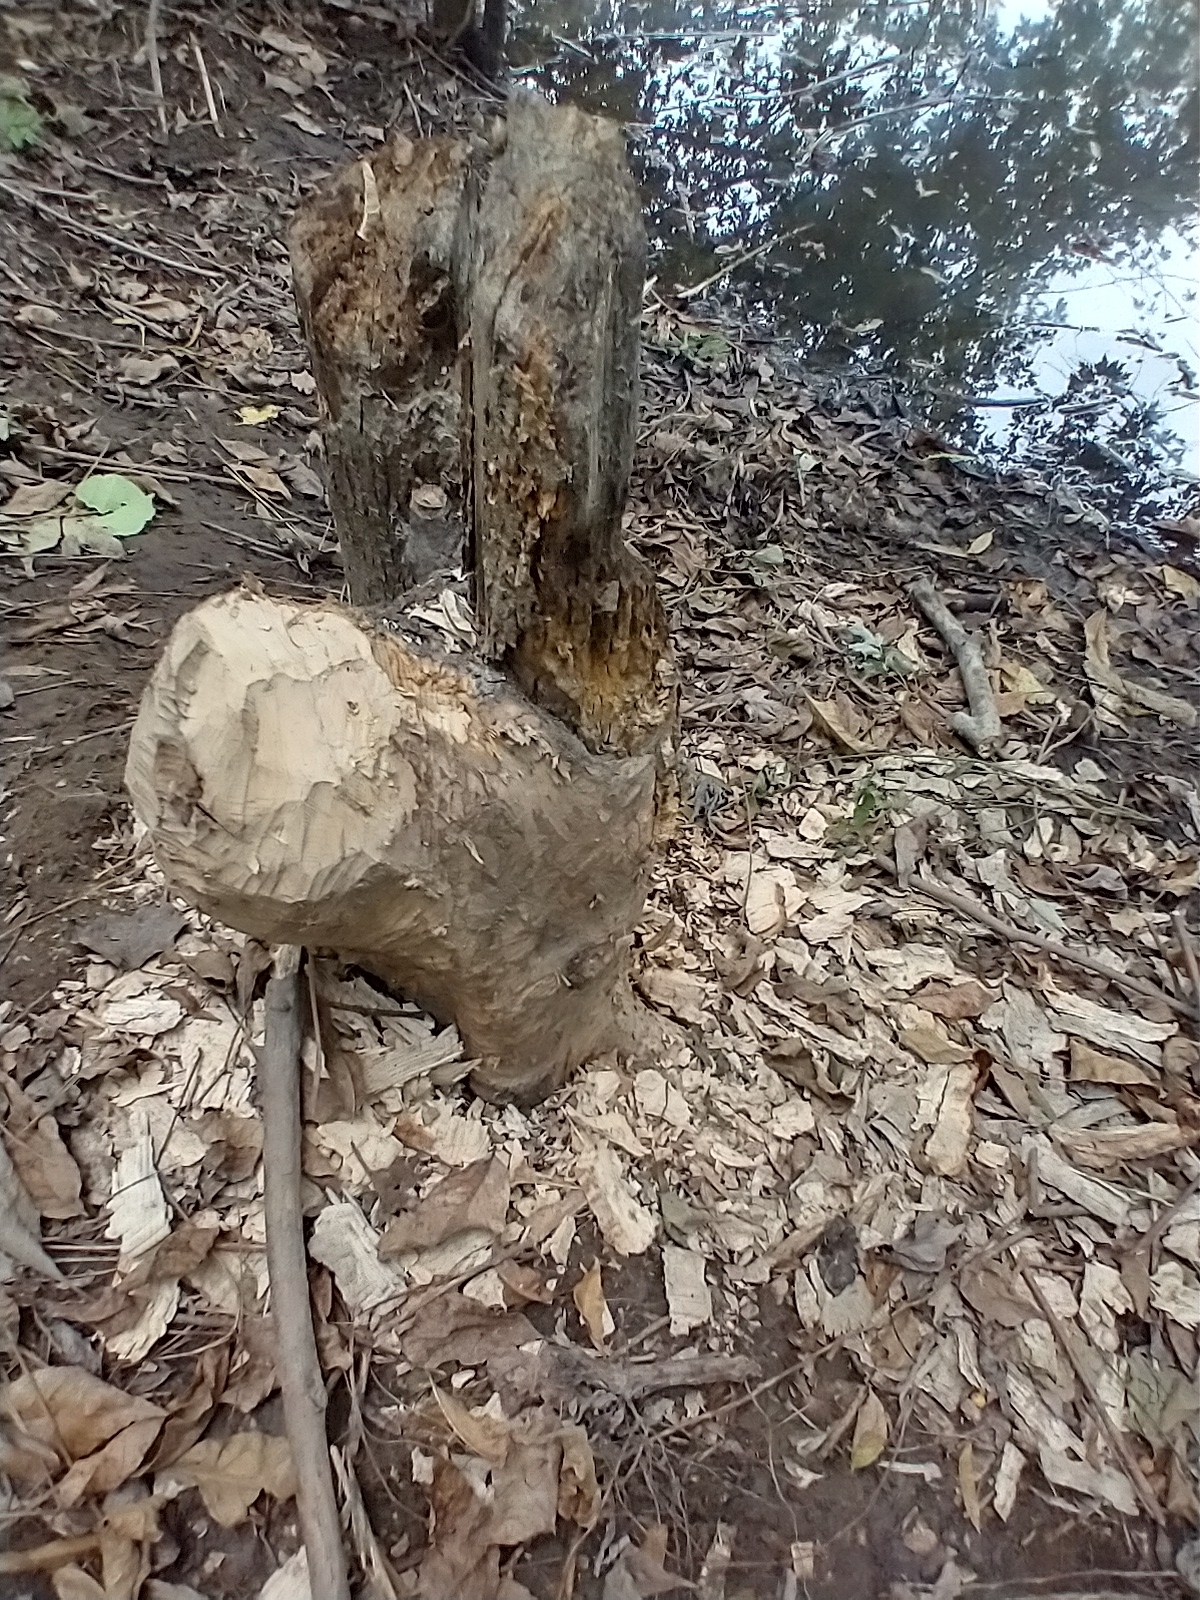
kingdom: Animalia
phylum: Chordata
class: Mammalia
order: Rodentia
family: Castoridae
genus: Castor
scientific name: Castor canadensis
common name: American beaver
